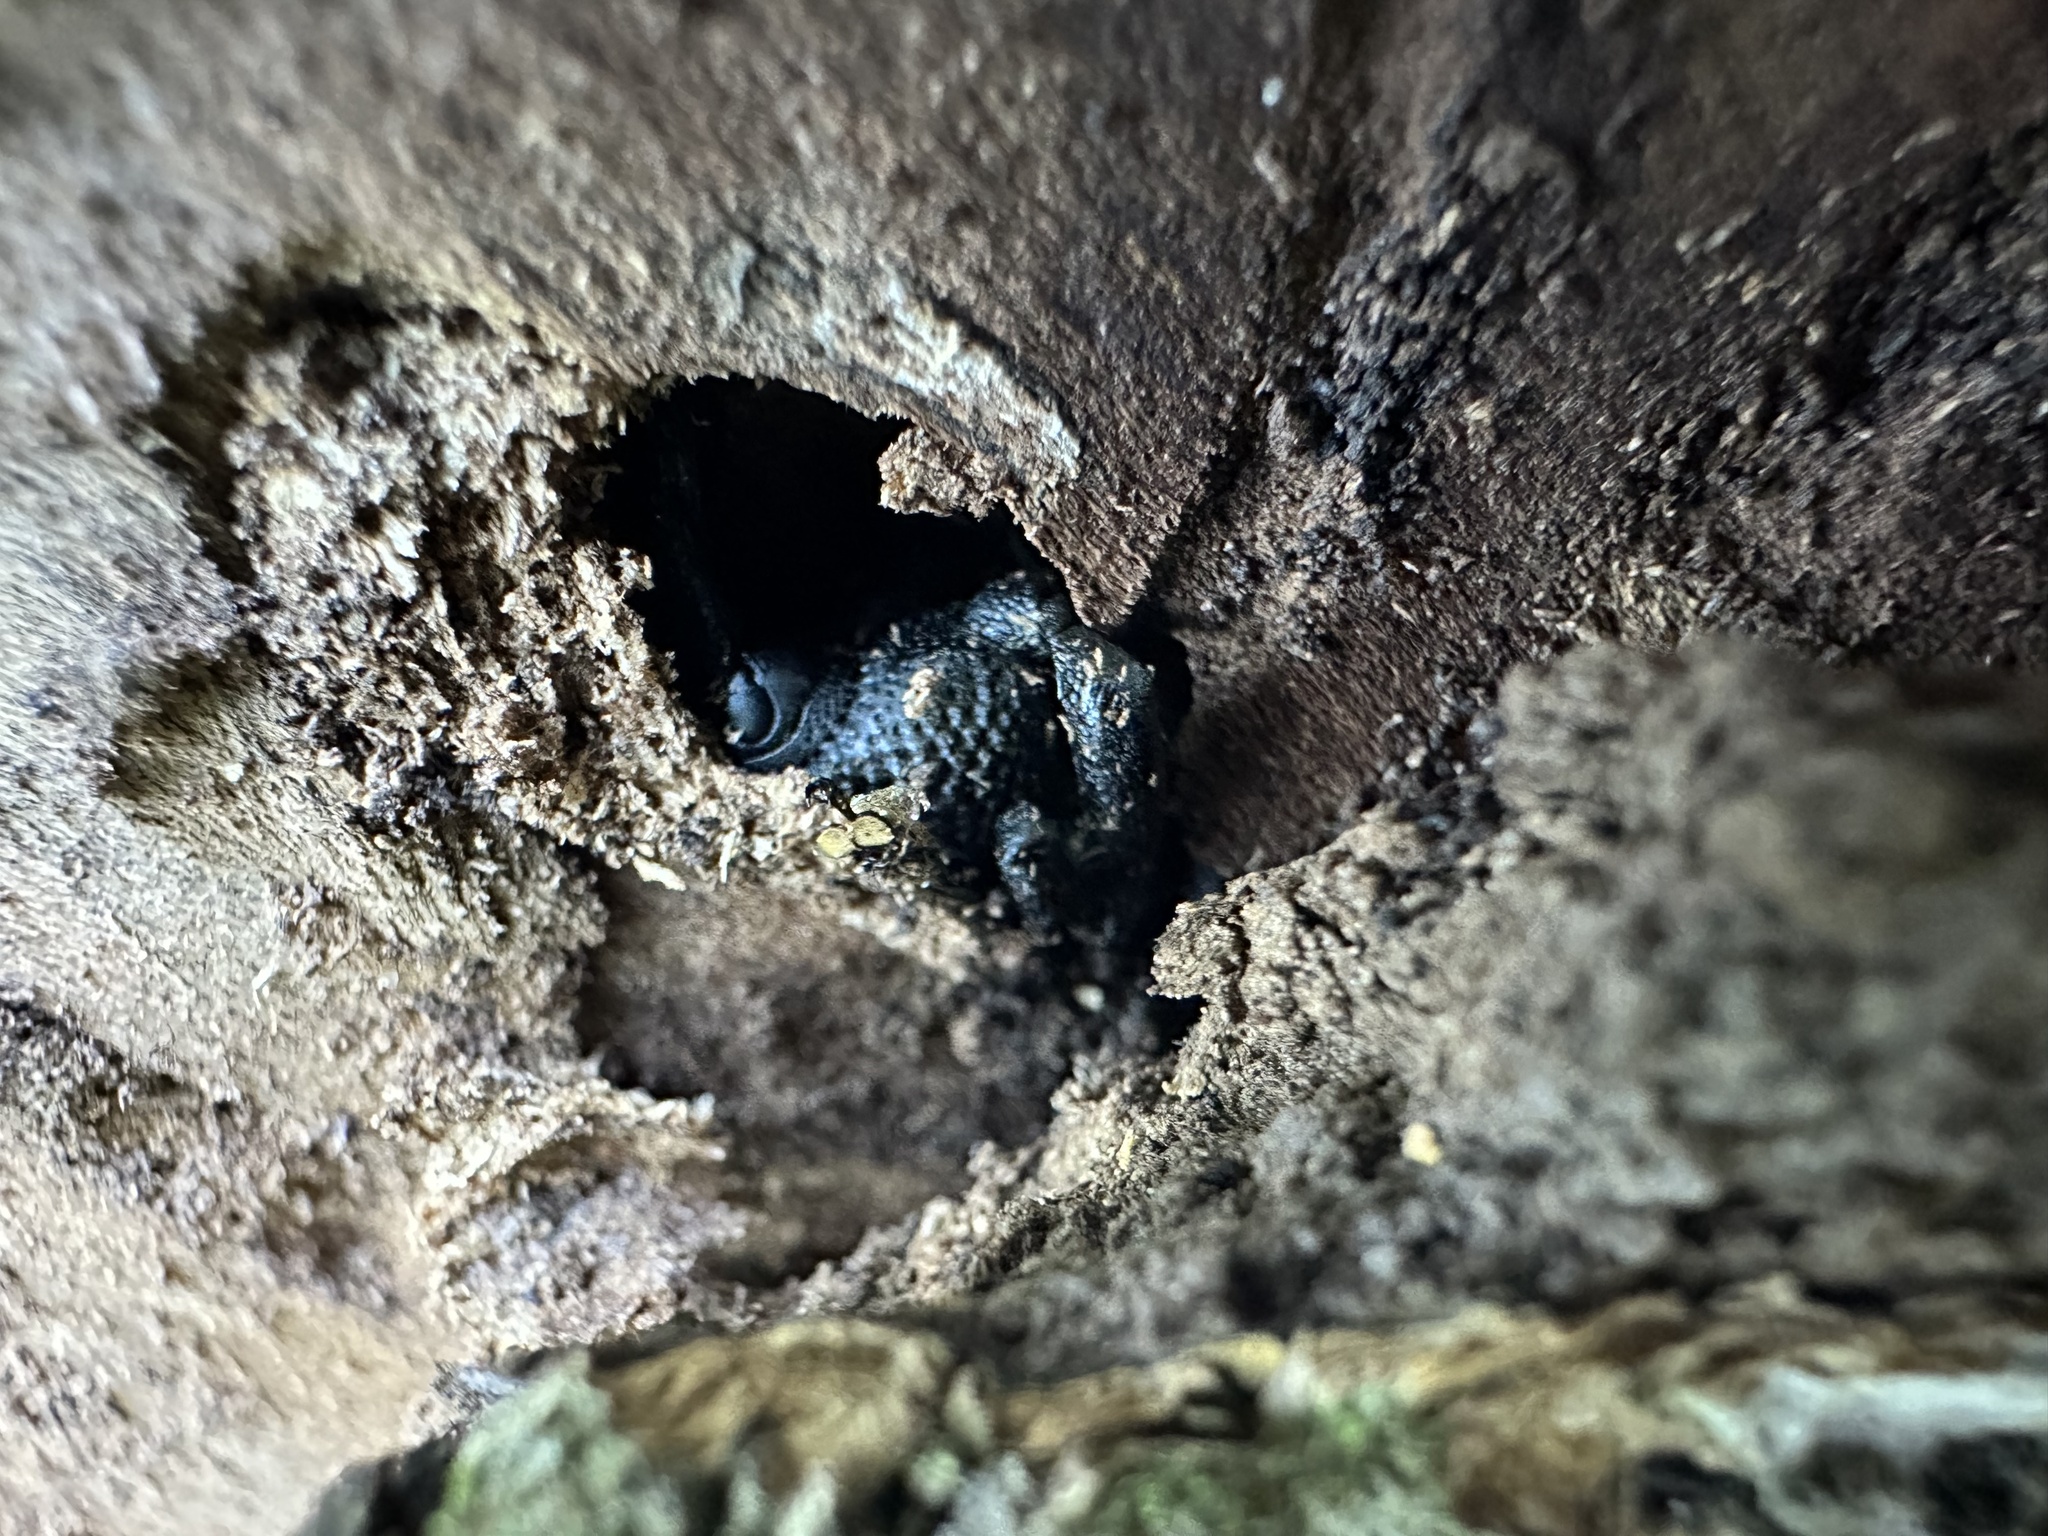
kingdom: Animalia
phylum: Arthropoda
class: Insecta
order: Coleoptera
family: Curculionidae
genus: Rhyephenes
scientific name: Rhyephenes humeralis
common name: Araè±ita chilena del pino
